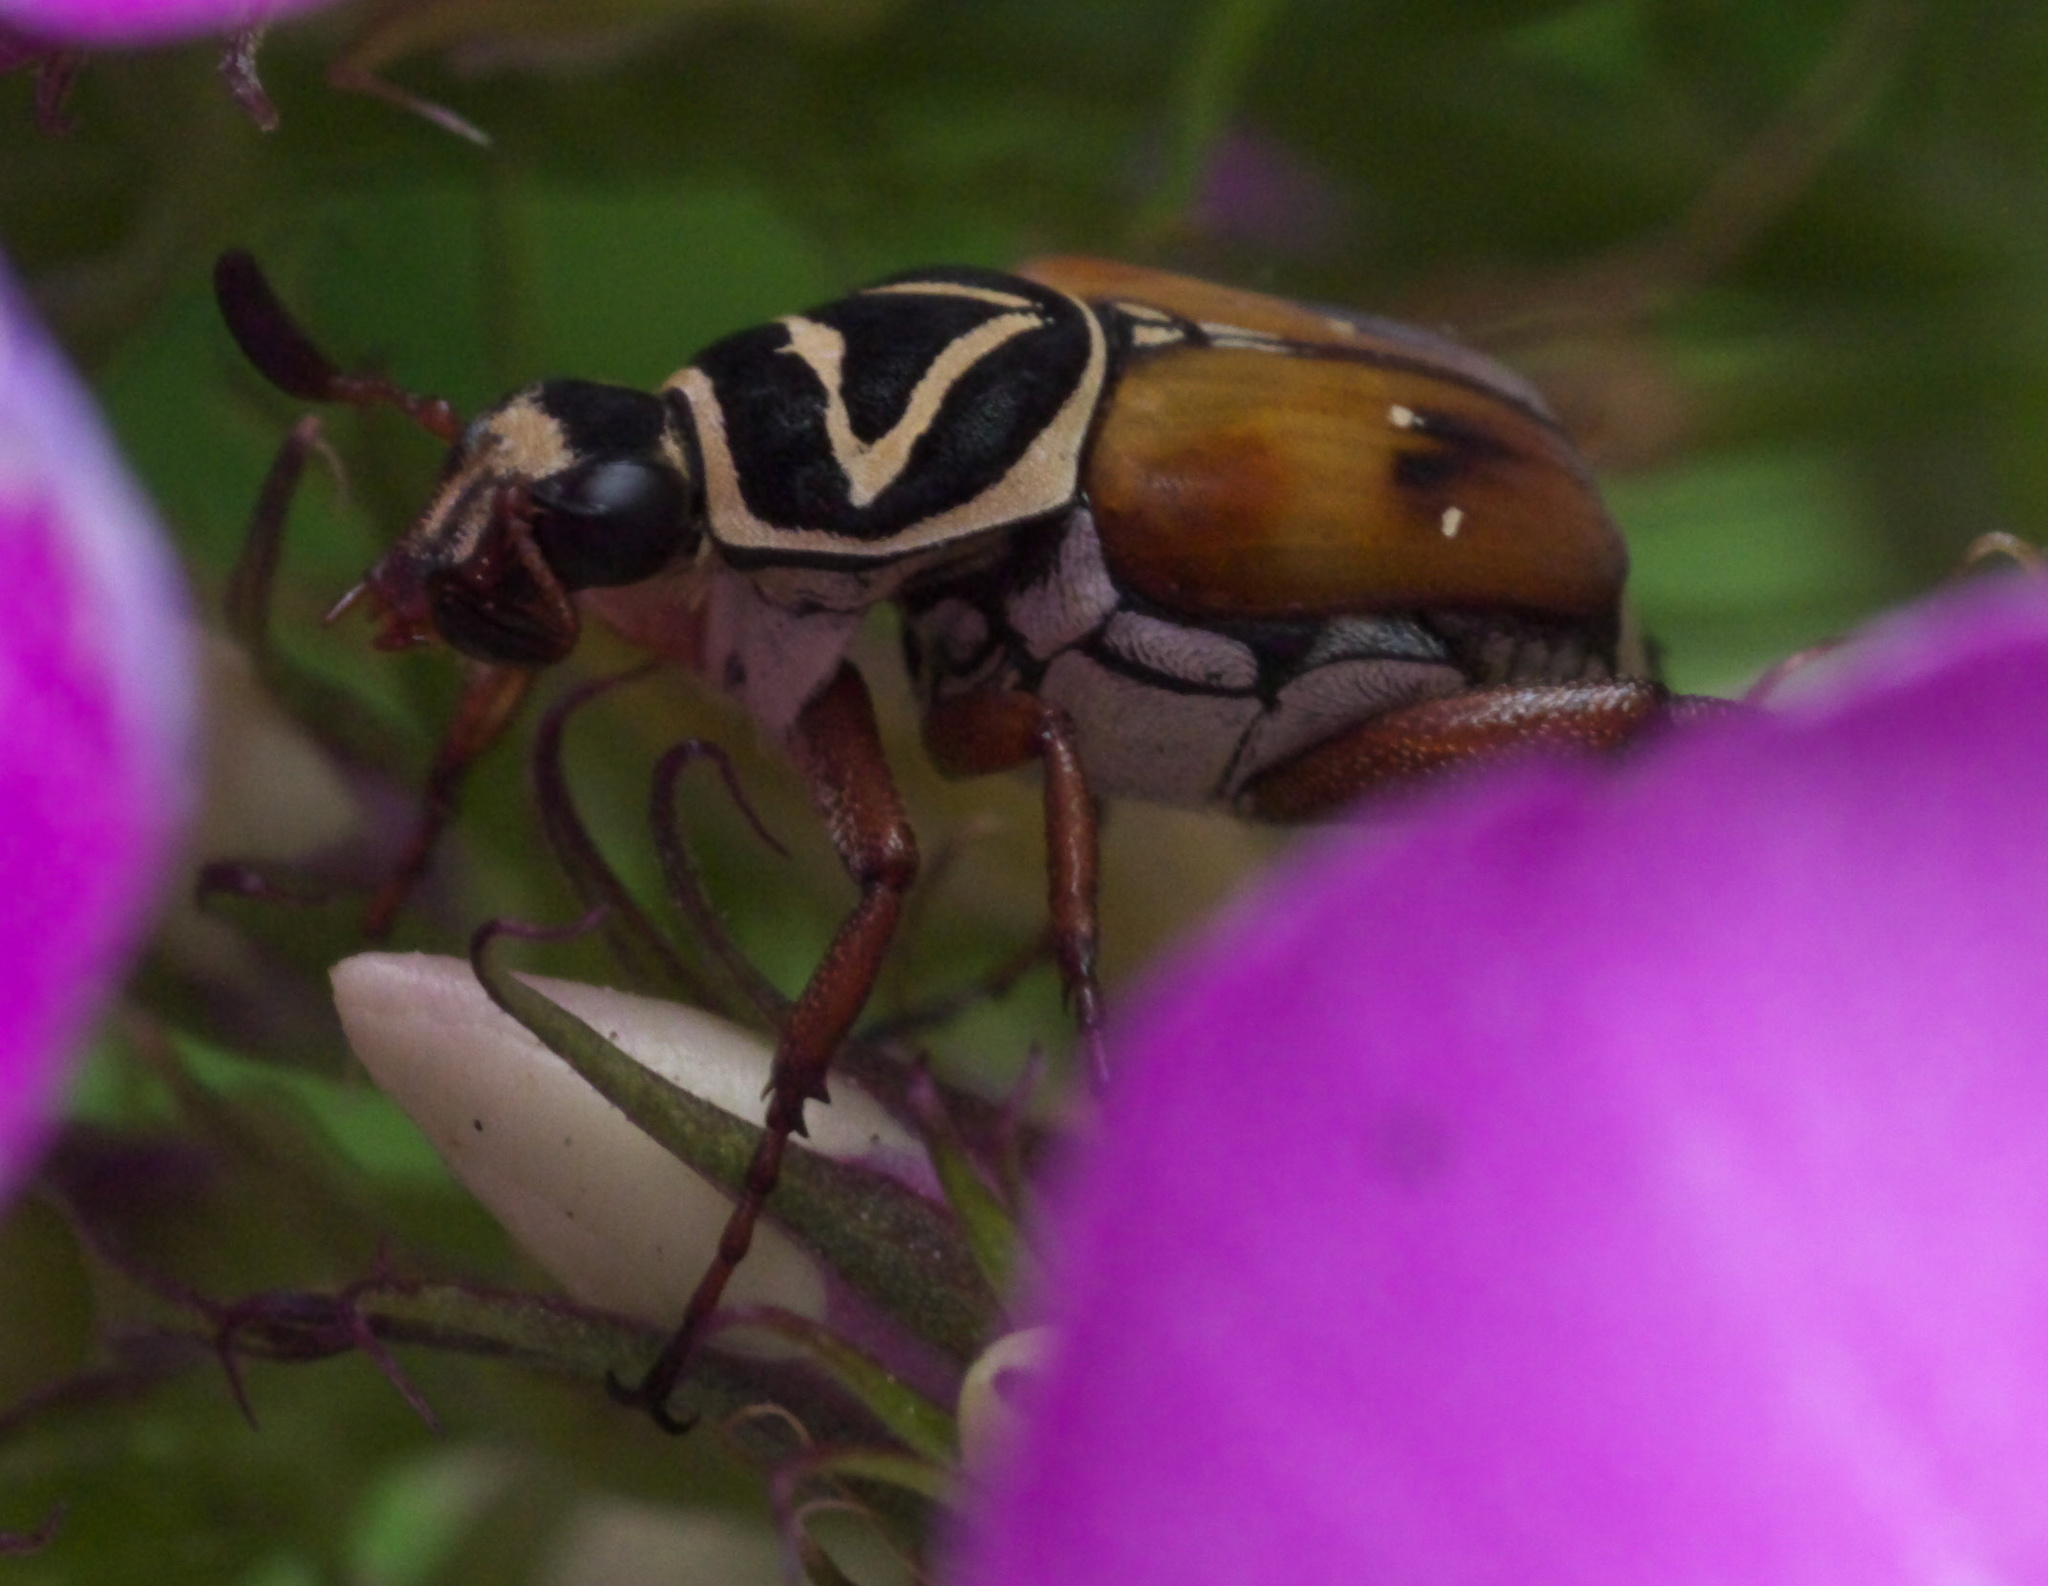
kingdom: Animalia
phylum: Arthropoda
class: Insecta
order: Coleoptera
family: Scarabaeidae
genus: Trigonopeltastes
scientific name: Trigonopeltastes delta
